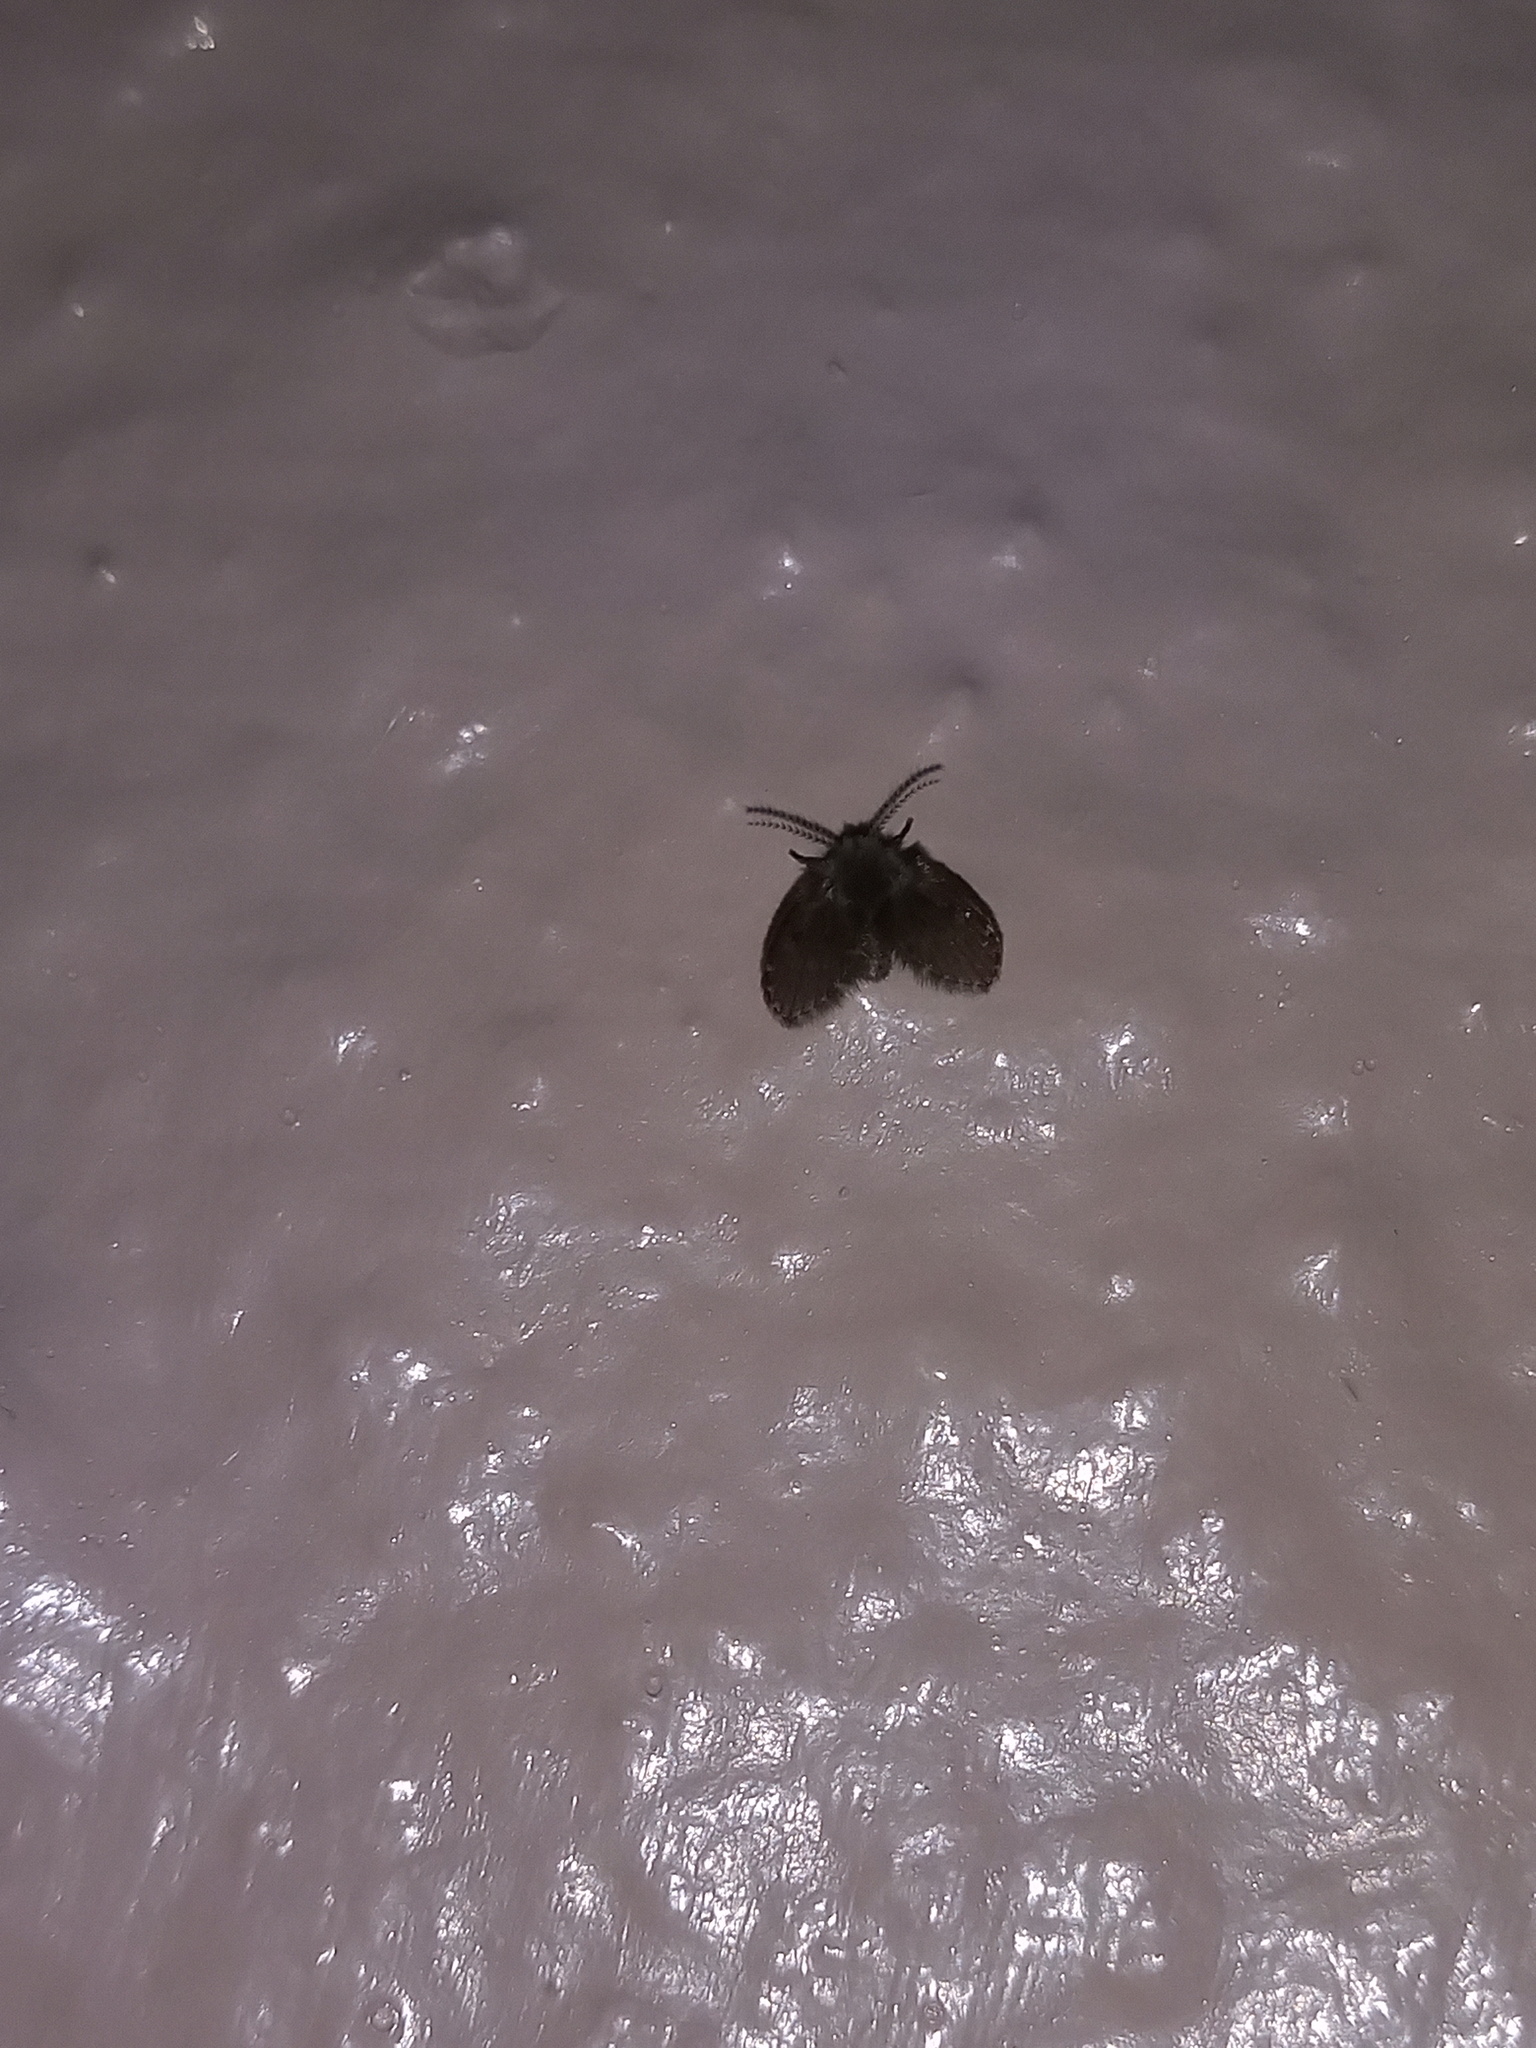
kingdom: Animalia
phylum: Arthropoda
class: Insecta
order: Diptera
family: Psychodidae
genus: Clogmia
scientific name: Clogmia albipunctatus
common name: White-spotted moth fly
